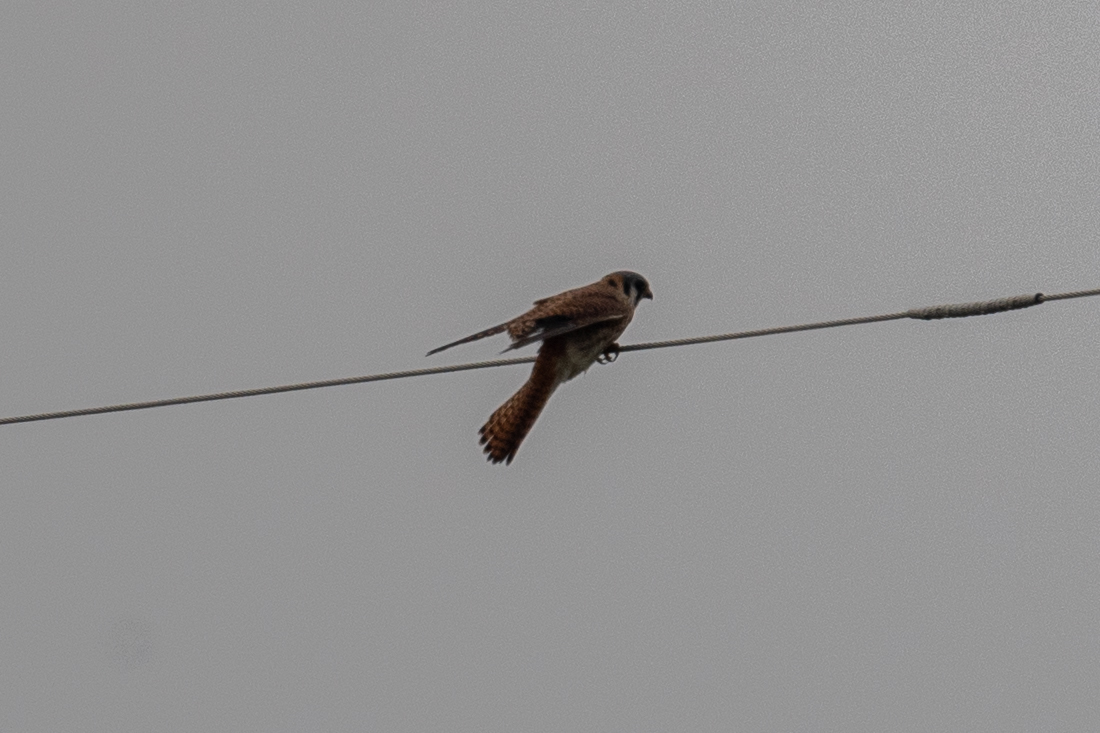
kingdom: Animalia
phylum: Chordata
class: Aves
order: Falconiformes
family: Falconidae
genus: Falco
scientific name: Falco sparverius
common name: American kestrel
